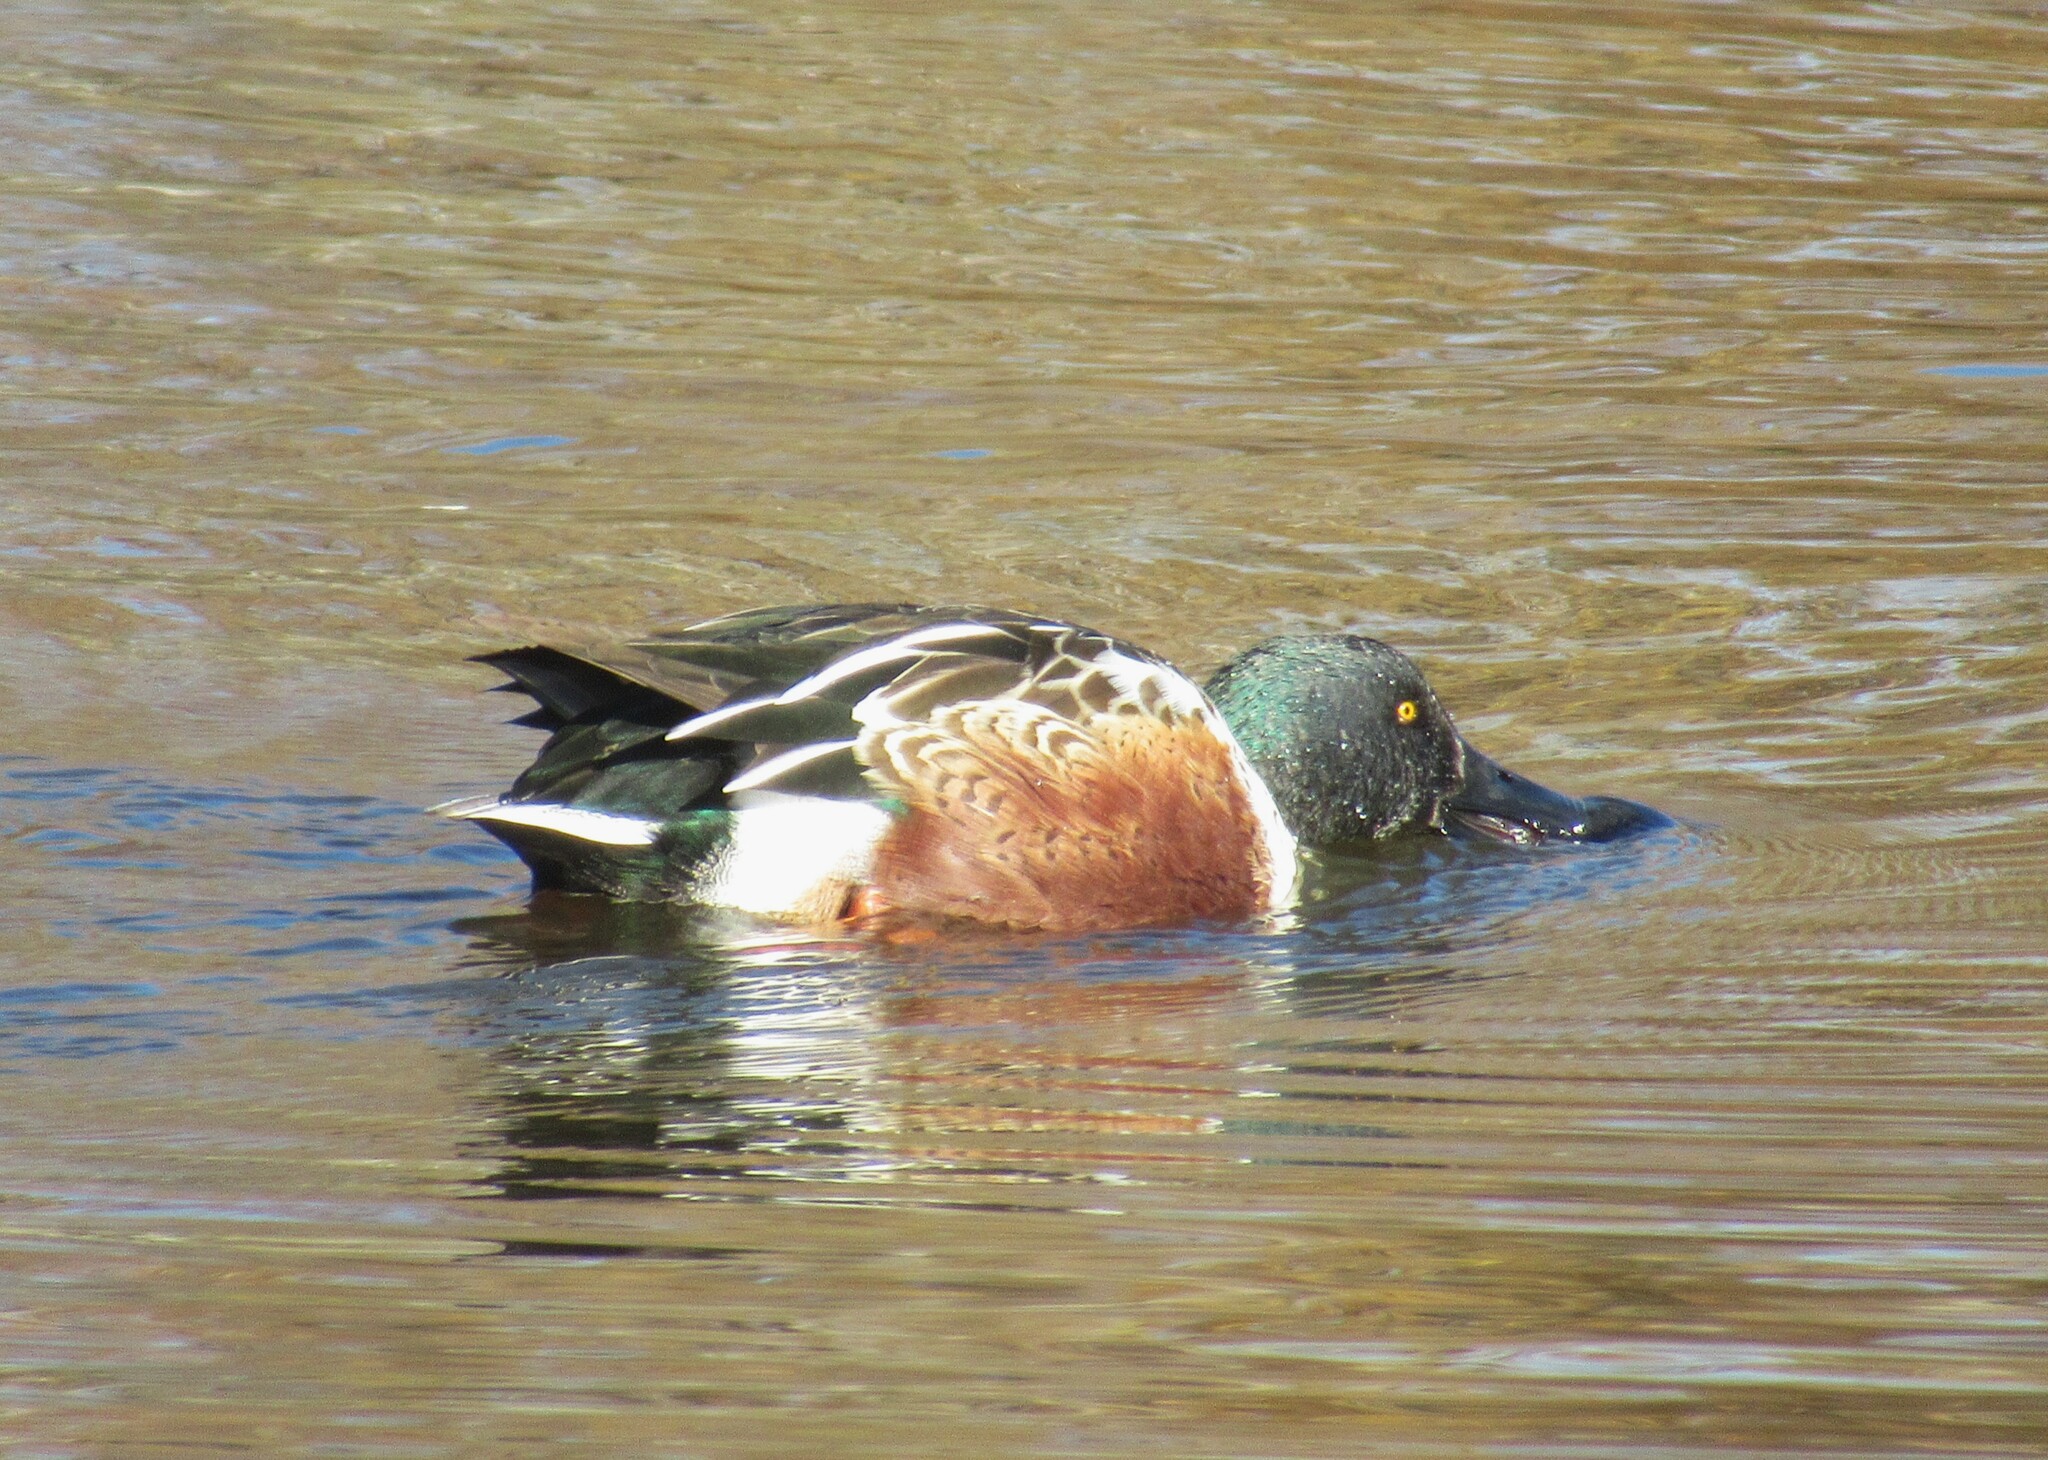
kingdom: Animalia
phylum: Chordata
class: Aves
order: Anseriformes
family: Anatidae
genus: Spatula
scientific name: Spatula clypeata
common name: Northern shoveler
